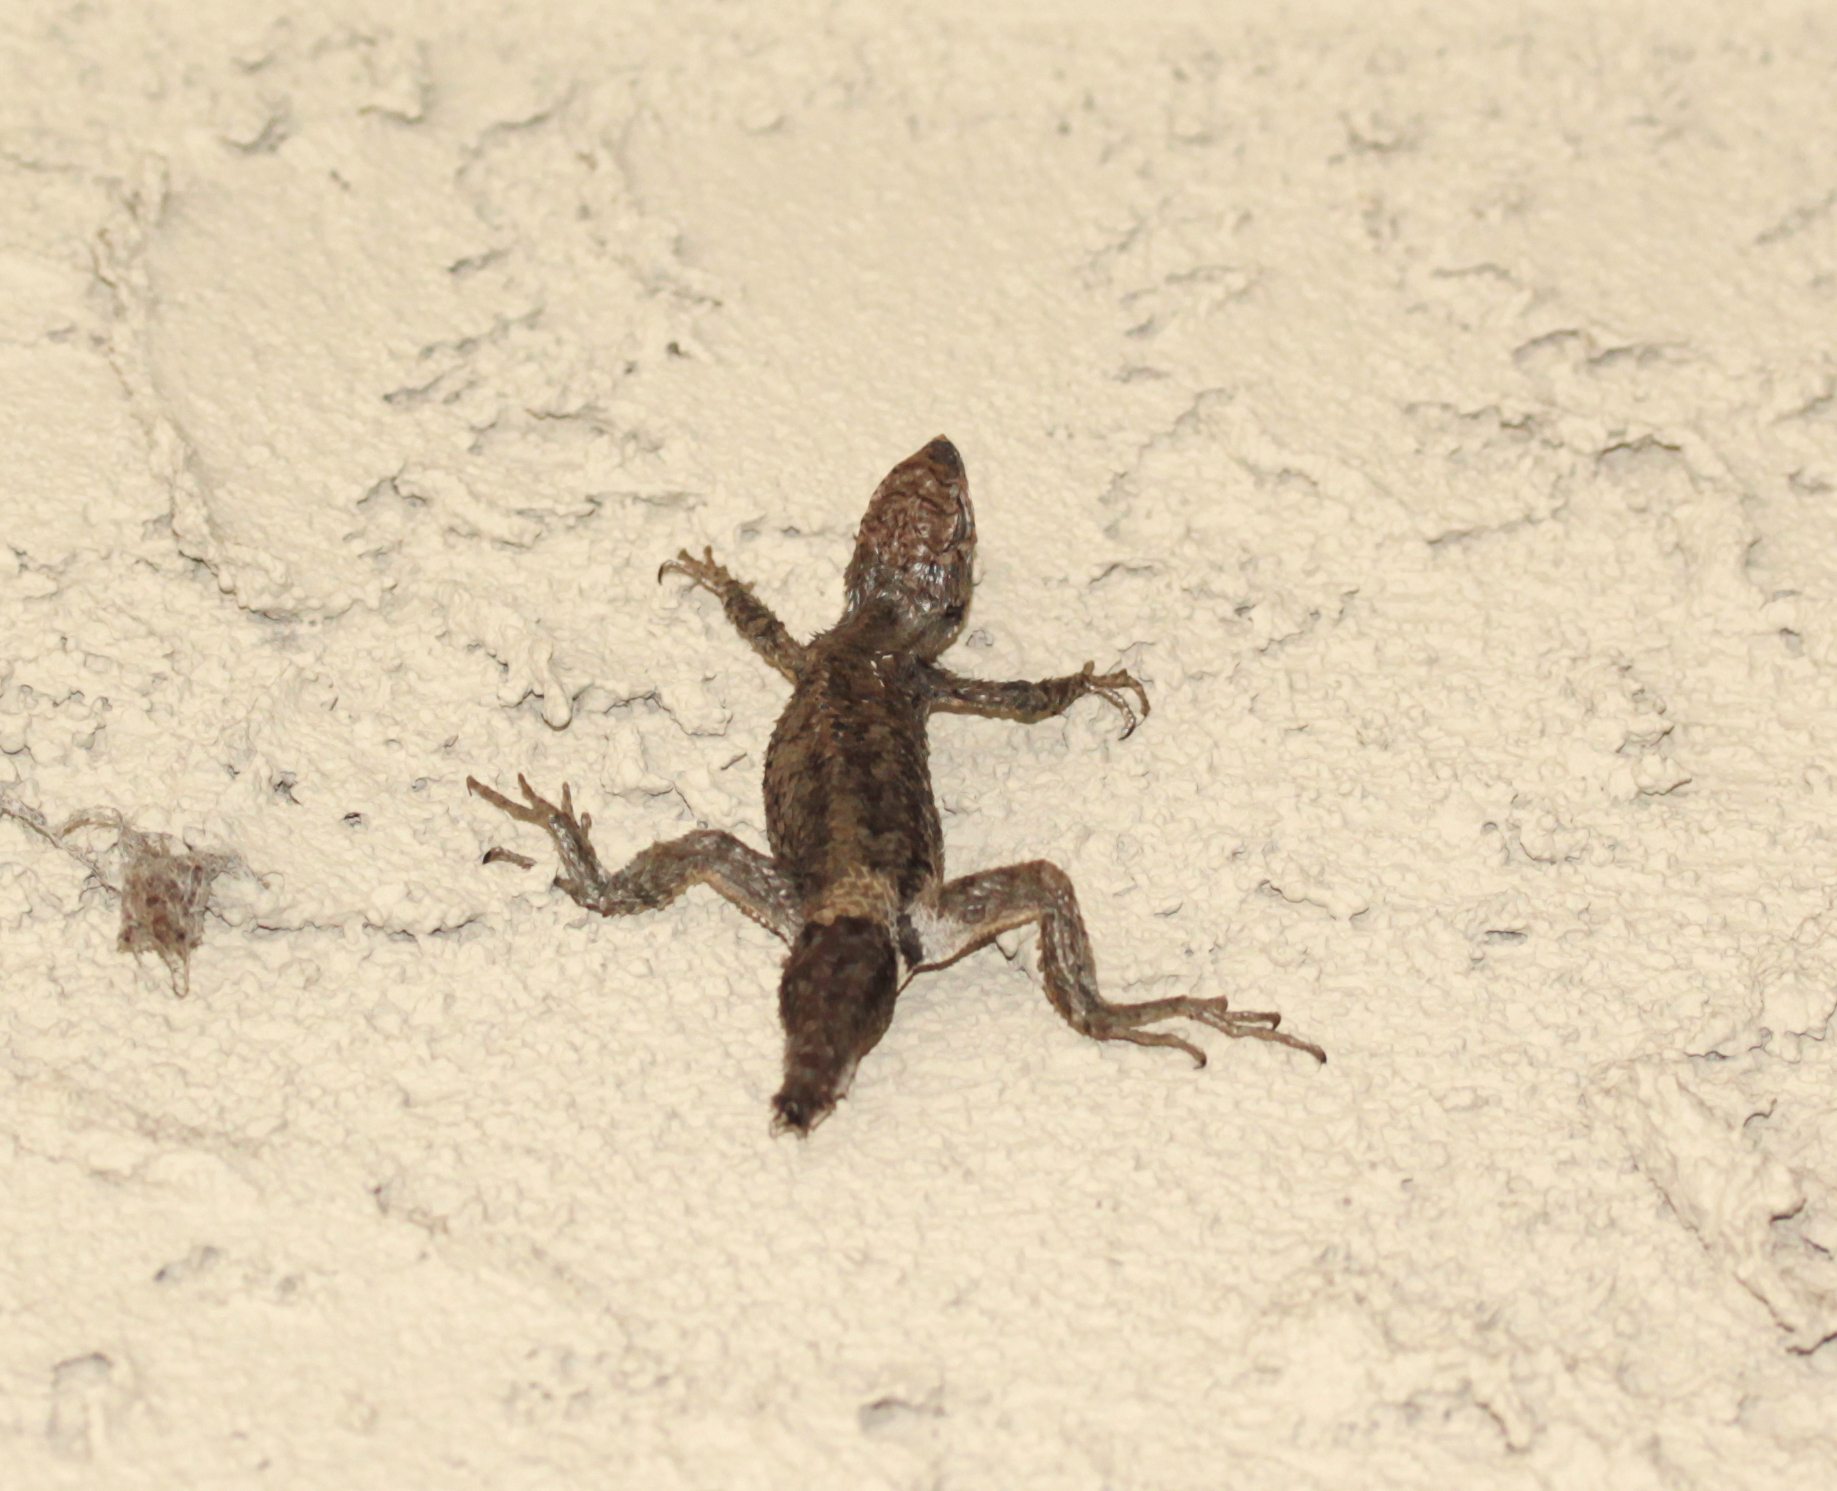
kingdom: Animalia
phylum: Chordata
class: Squamata
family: Phrynosomatidae
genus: Sceloporus
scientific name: Sceloporus occidentalis
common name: Western fence lizard
